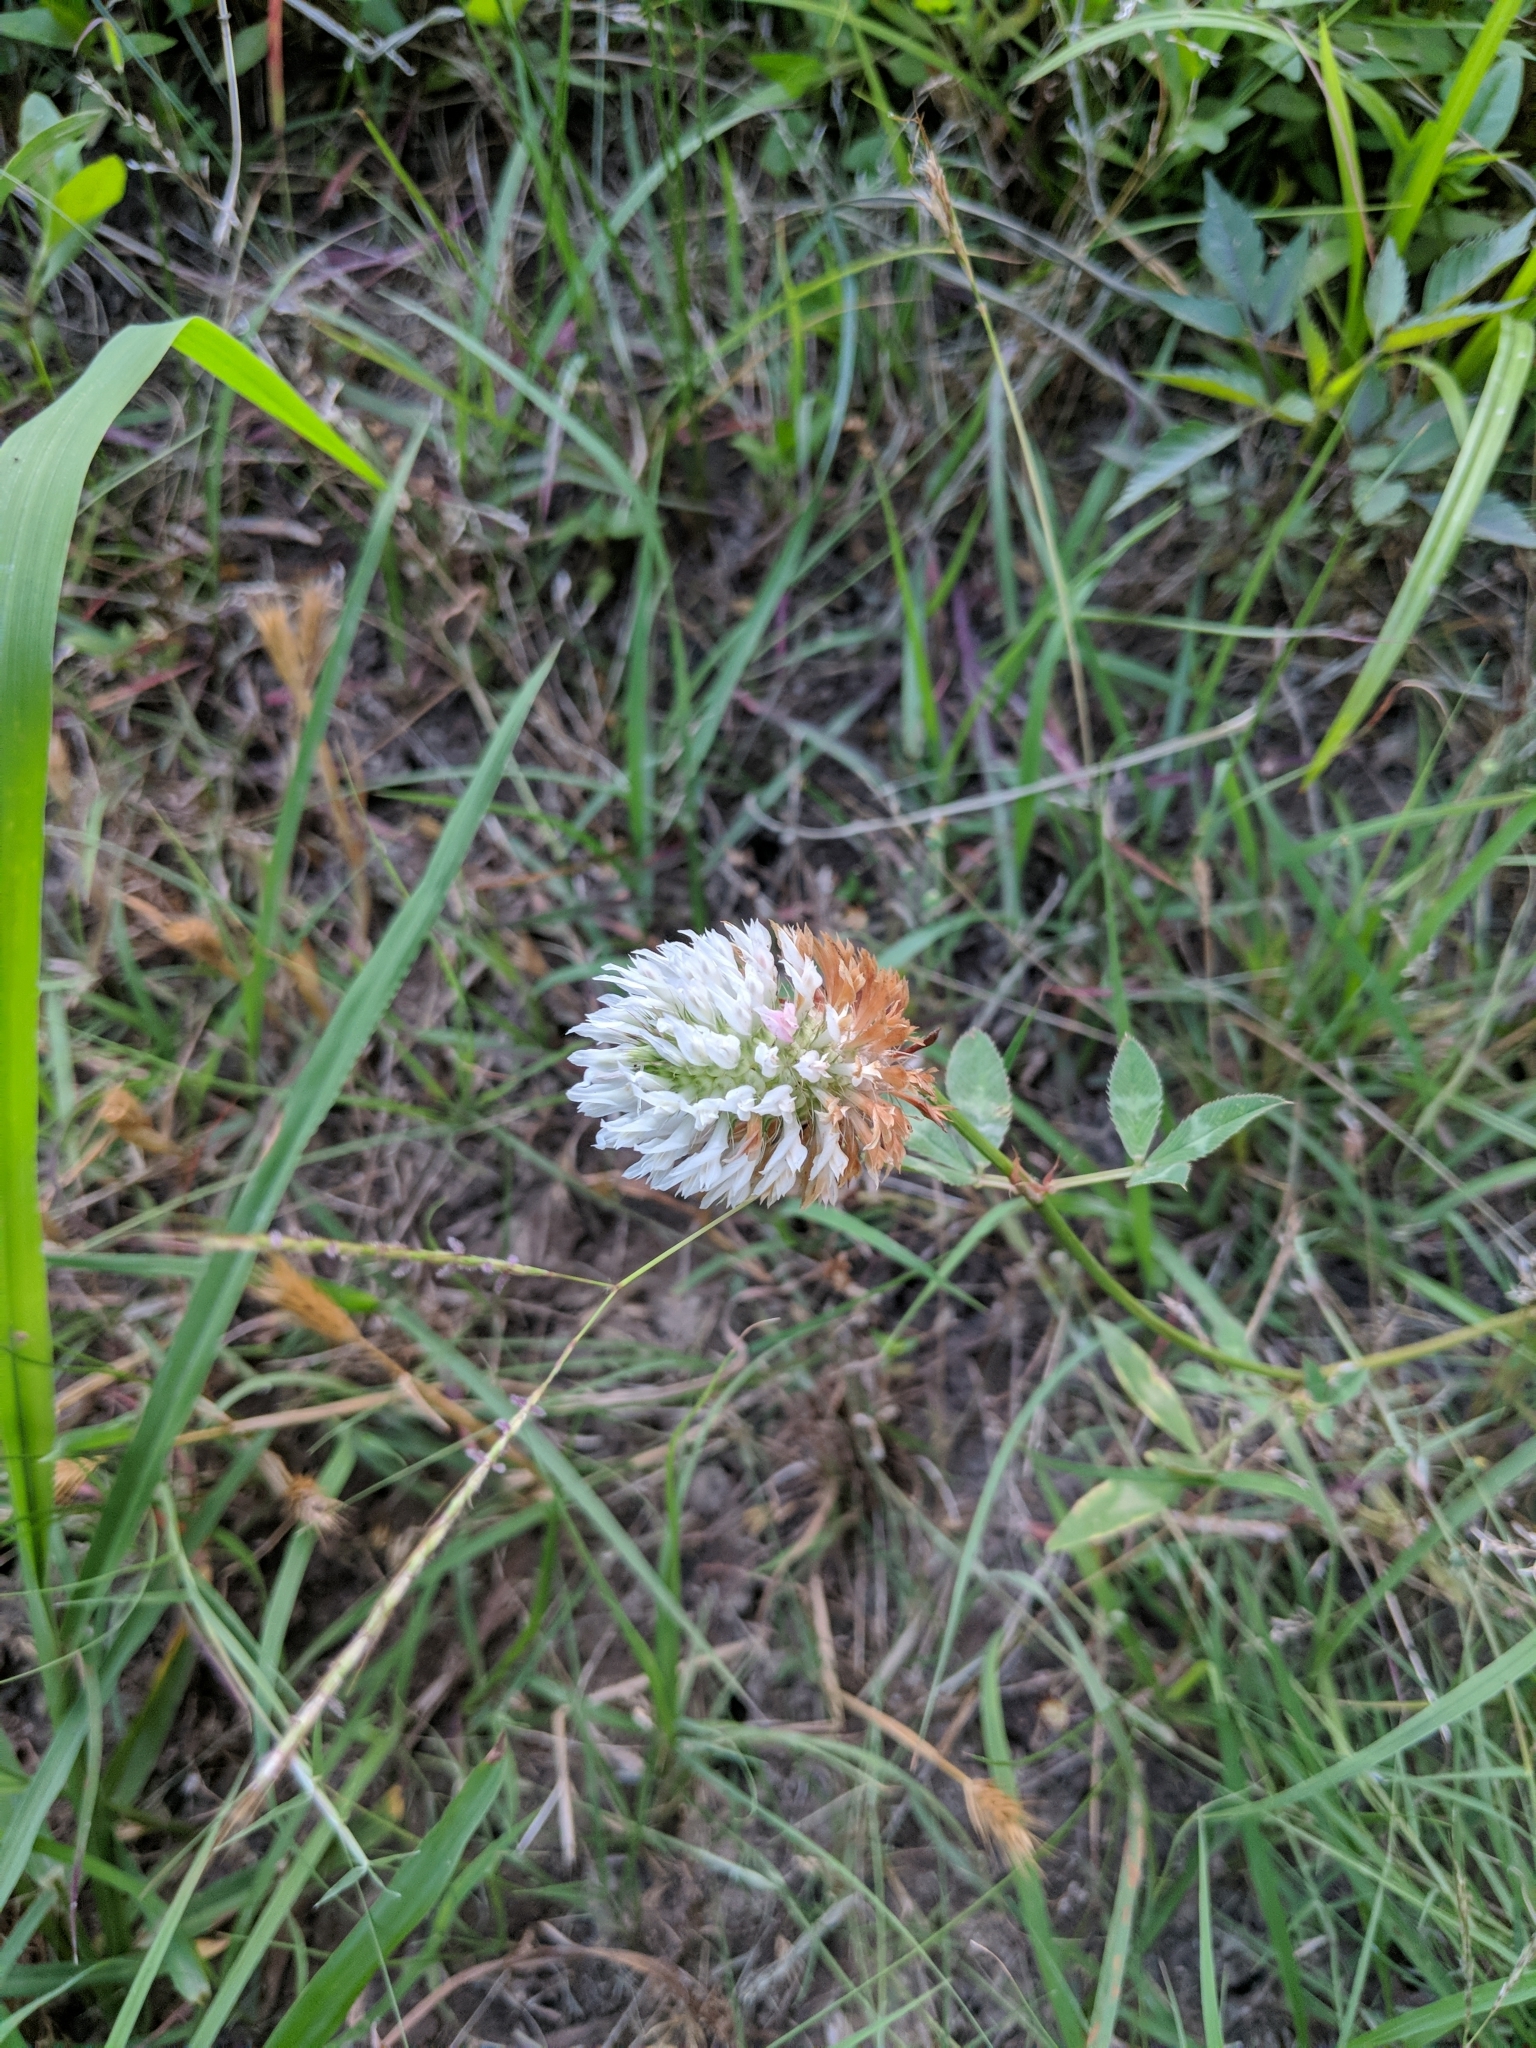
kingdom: Plantae
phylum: Tracheophyta
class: Magnoliopsida
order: Fabales
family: Fabaceae
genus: Trifolium
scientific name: Trifolium vesiculosum
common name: Arrowleaf clover
